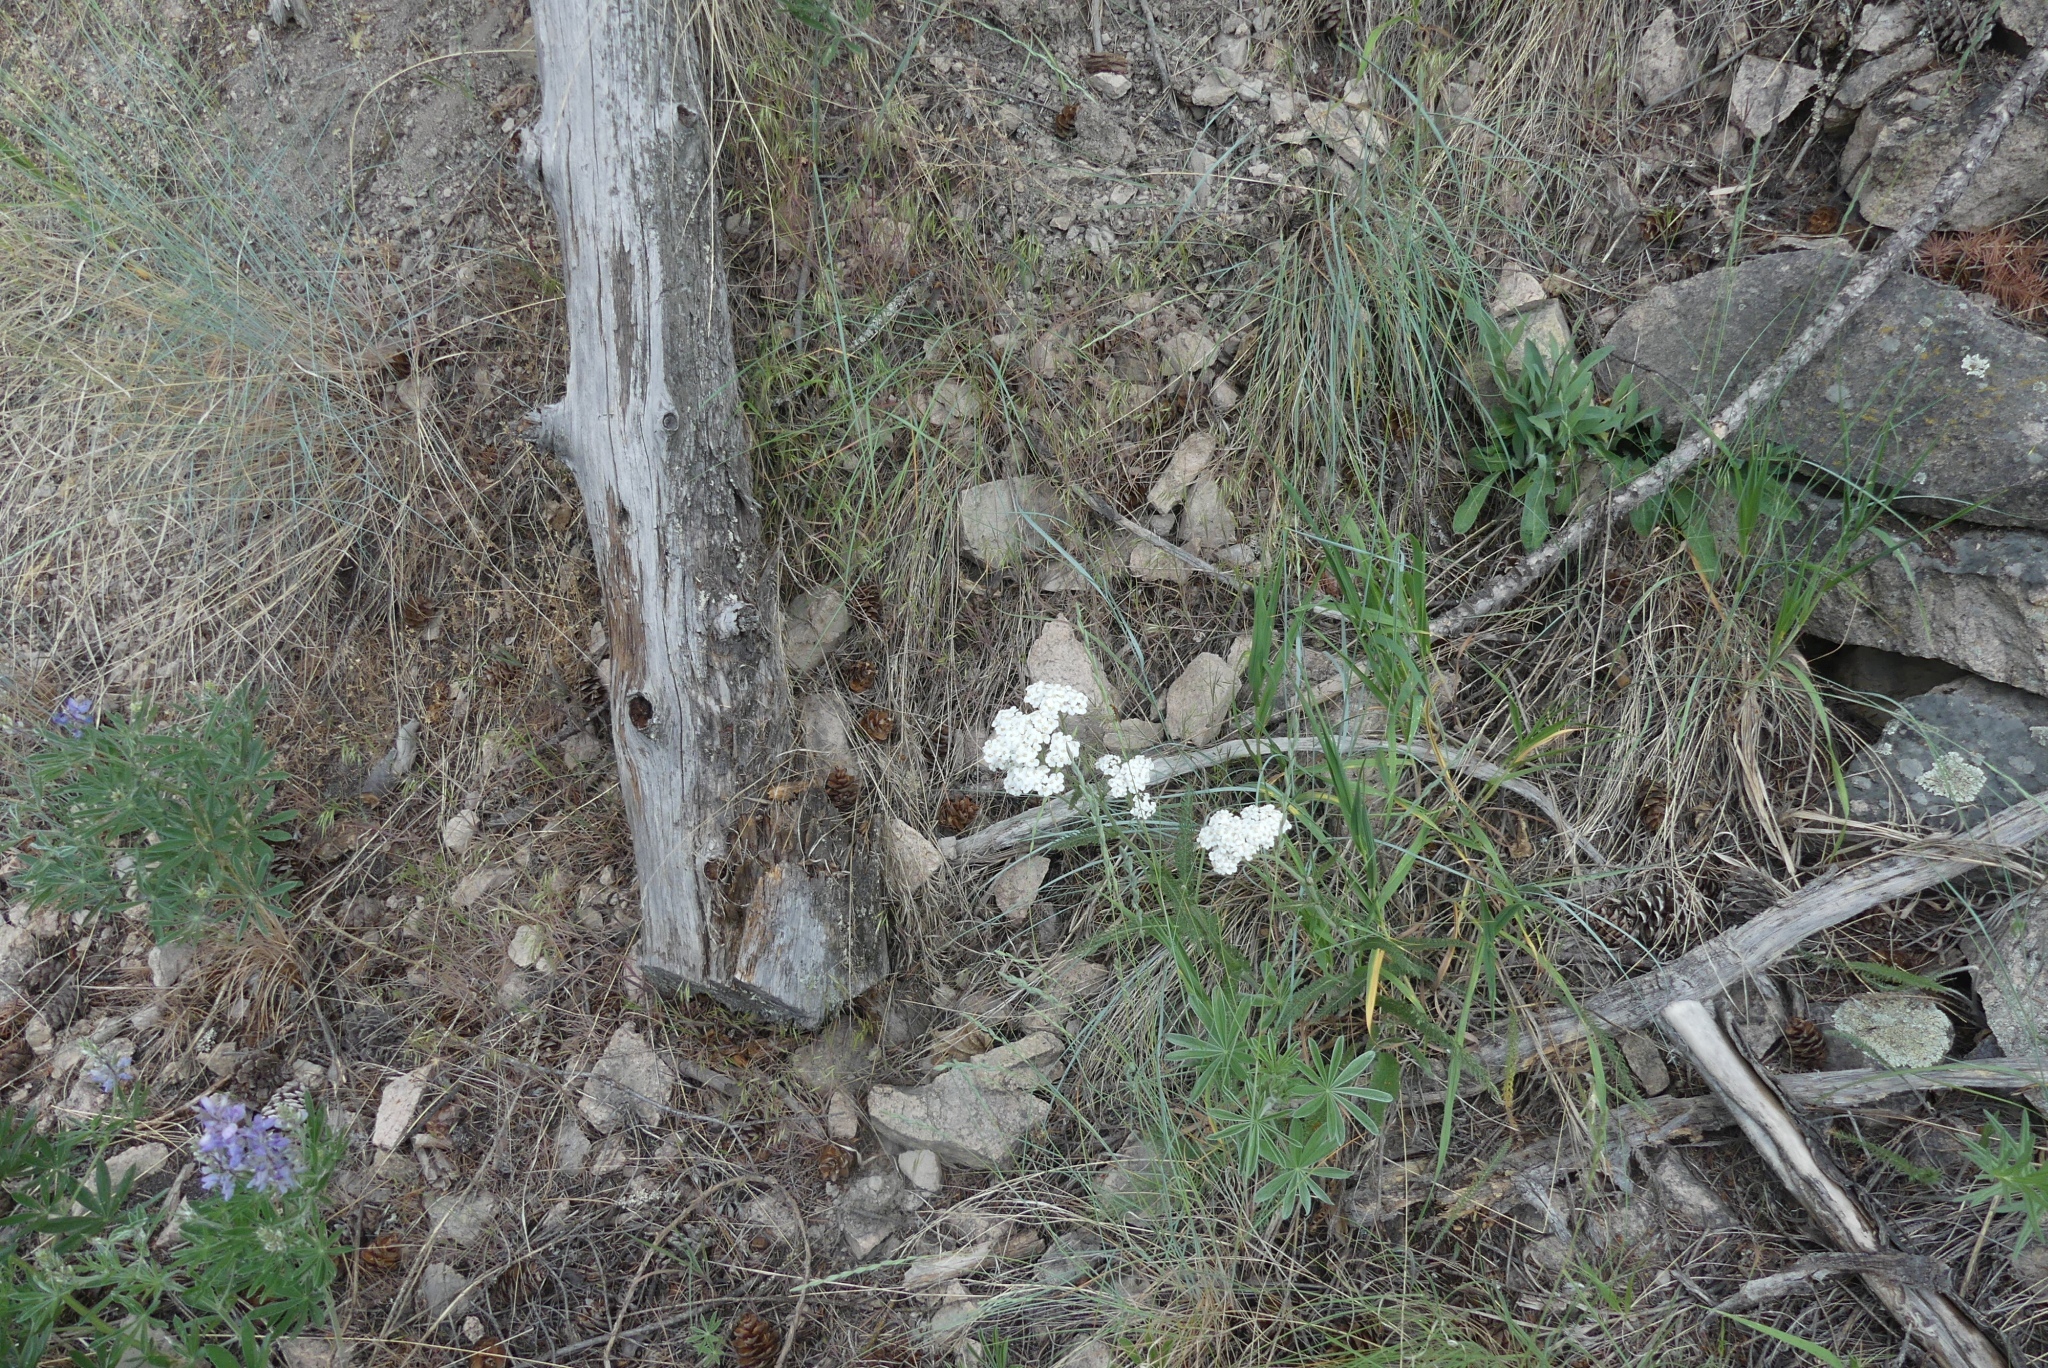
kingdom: Plantae
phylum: Tracheophyta
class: Magnoliopsida
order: Asterales
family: Asteraceae
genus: Achillea
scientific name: Achillea millefolium
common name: Yarrow
